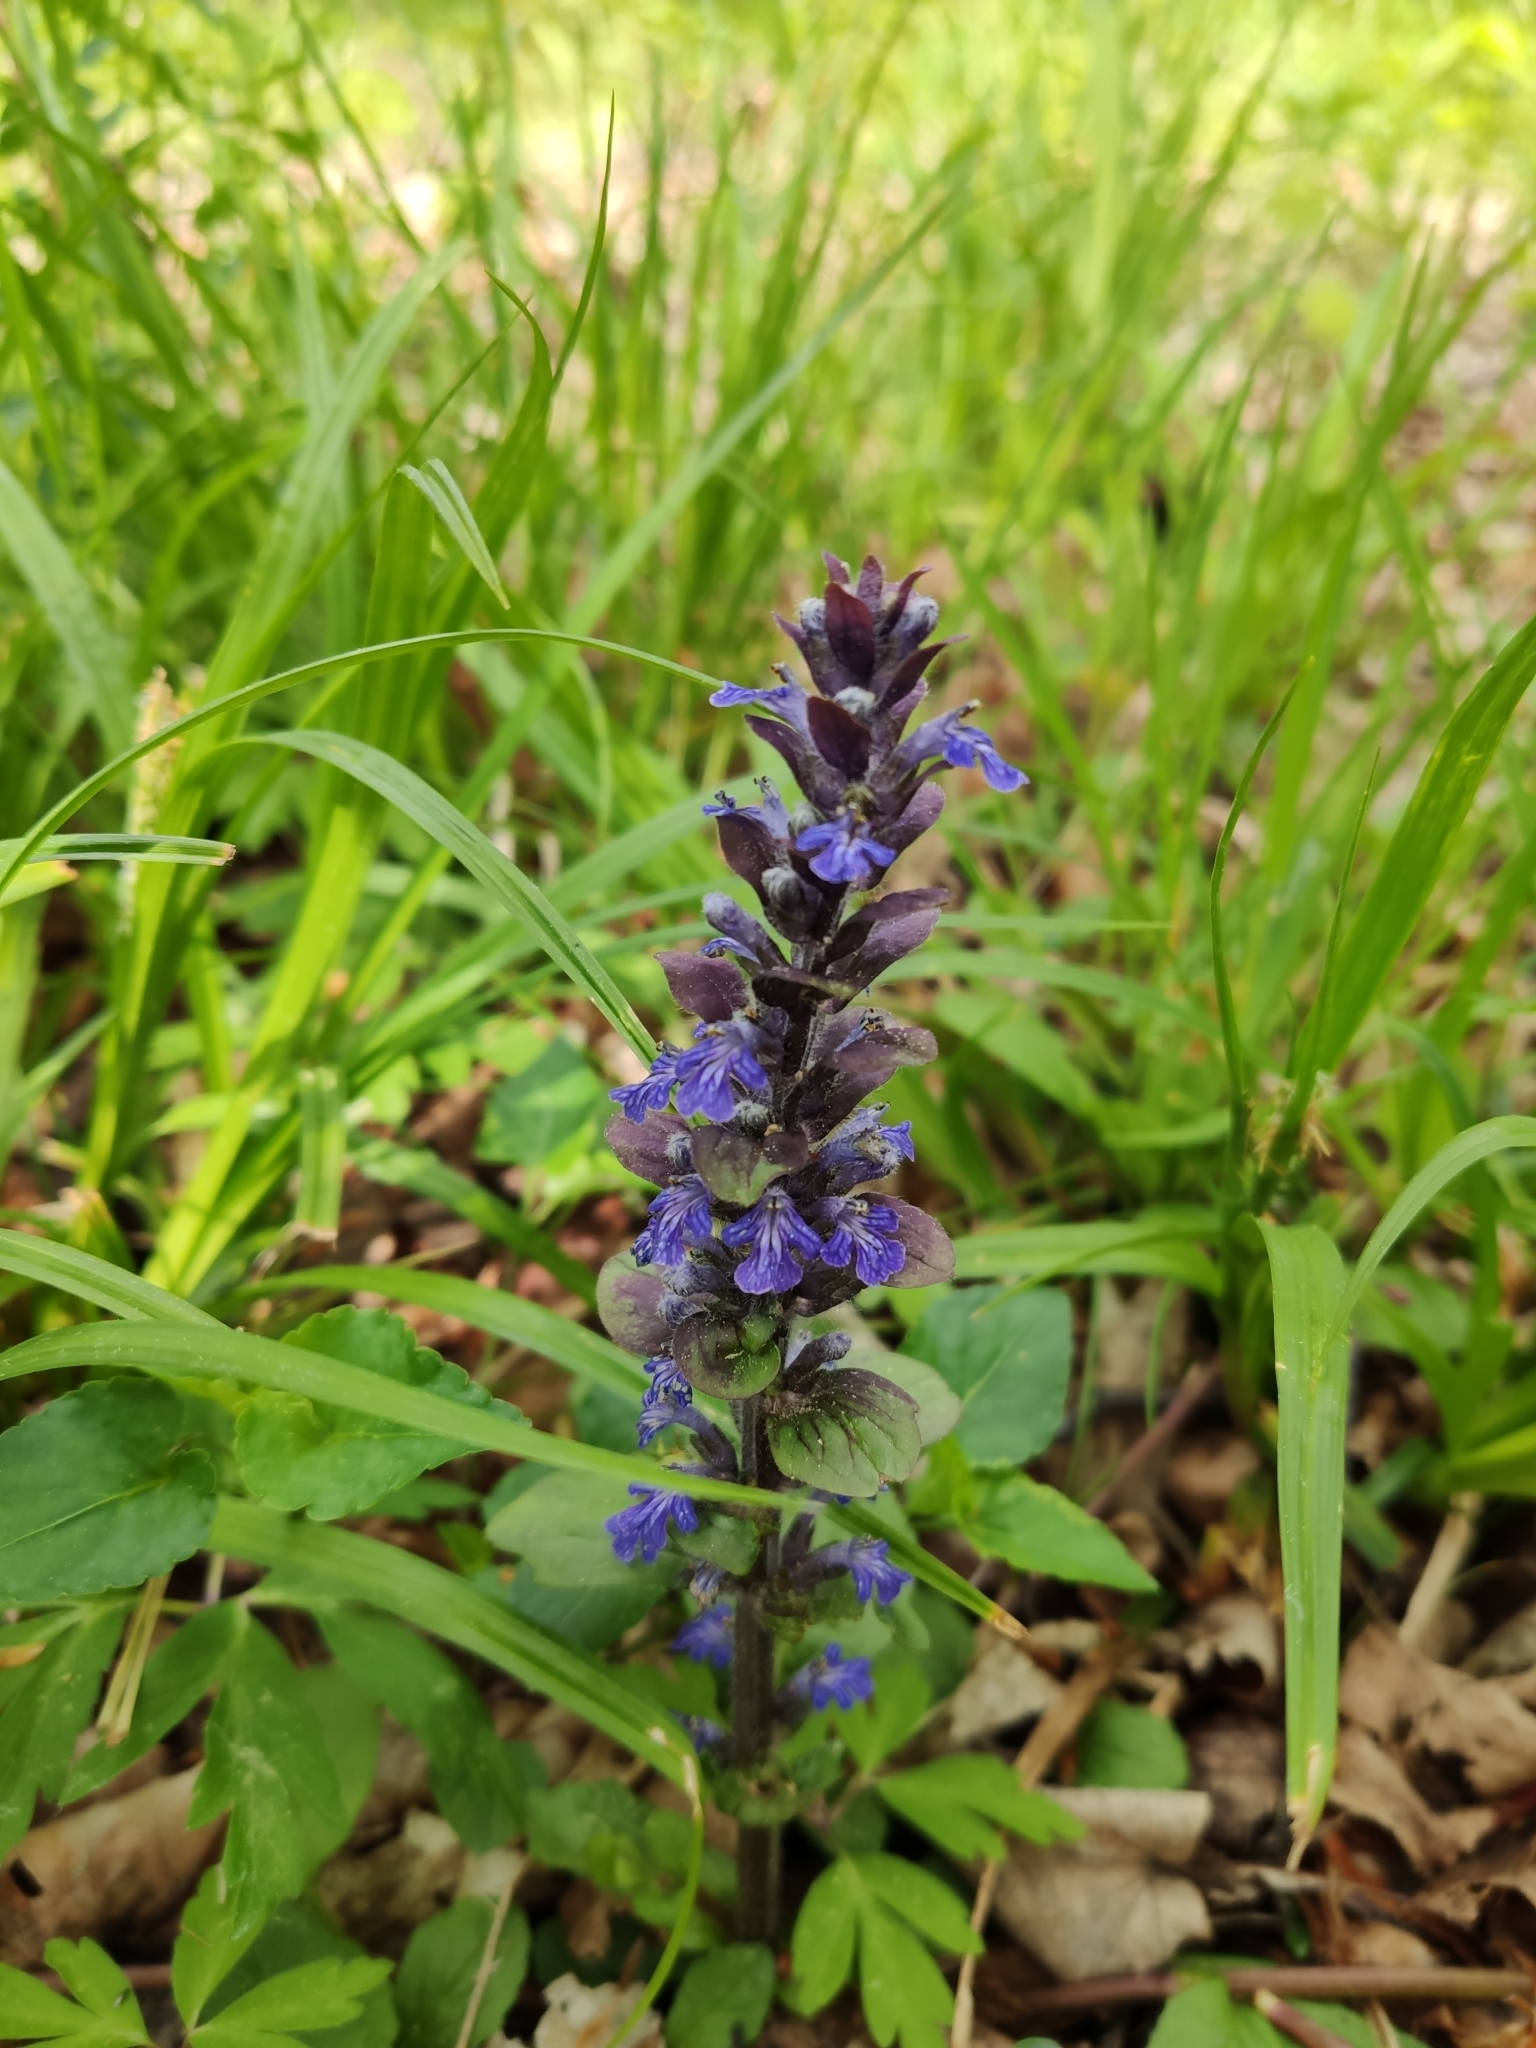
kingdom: Plantae
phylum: Tracheophyta
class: Magnoliopsida
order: Lamiales
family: Lamiaceae
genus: Ajuga
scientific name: Ajuga genevensis
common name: Blue bugle
